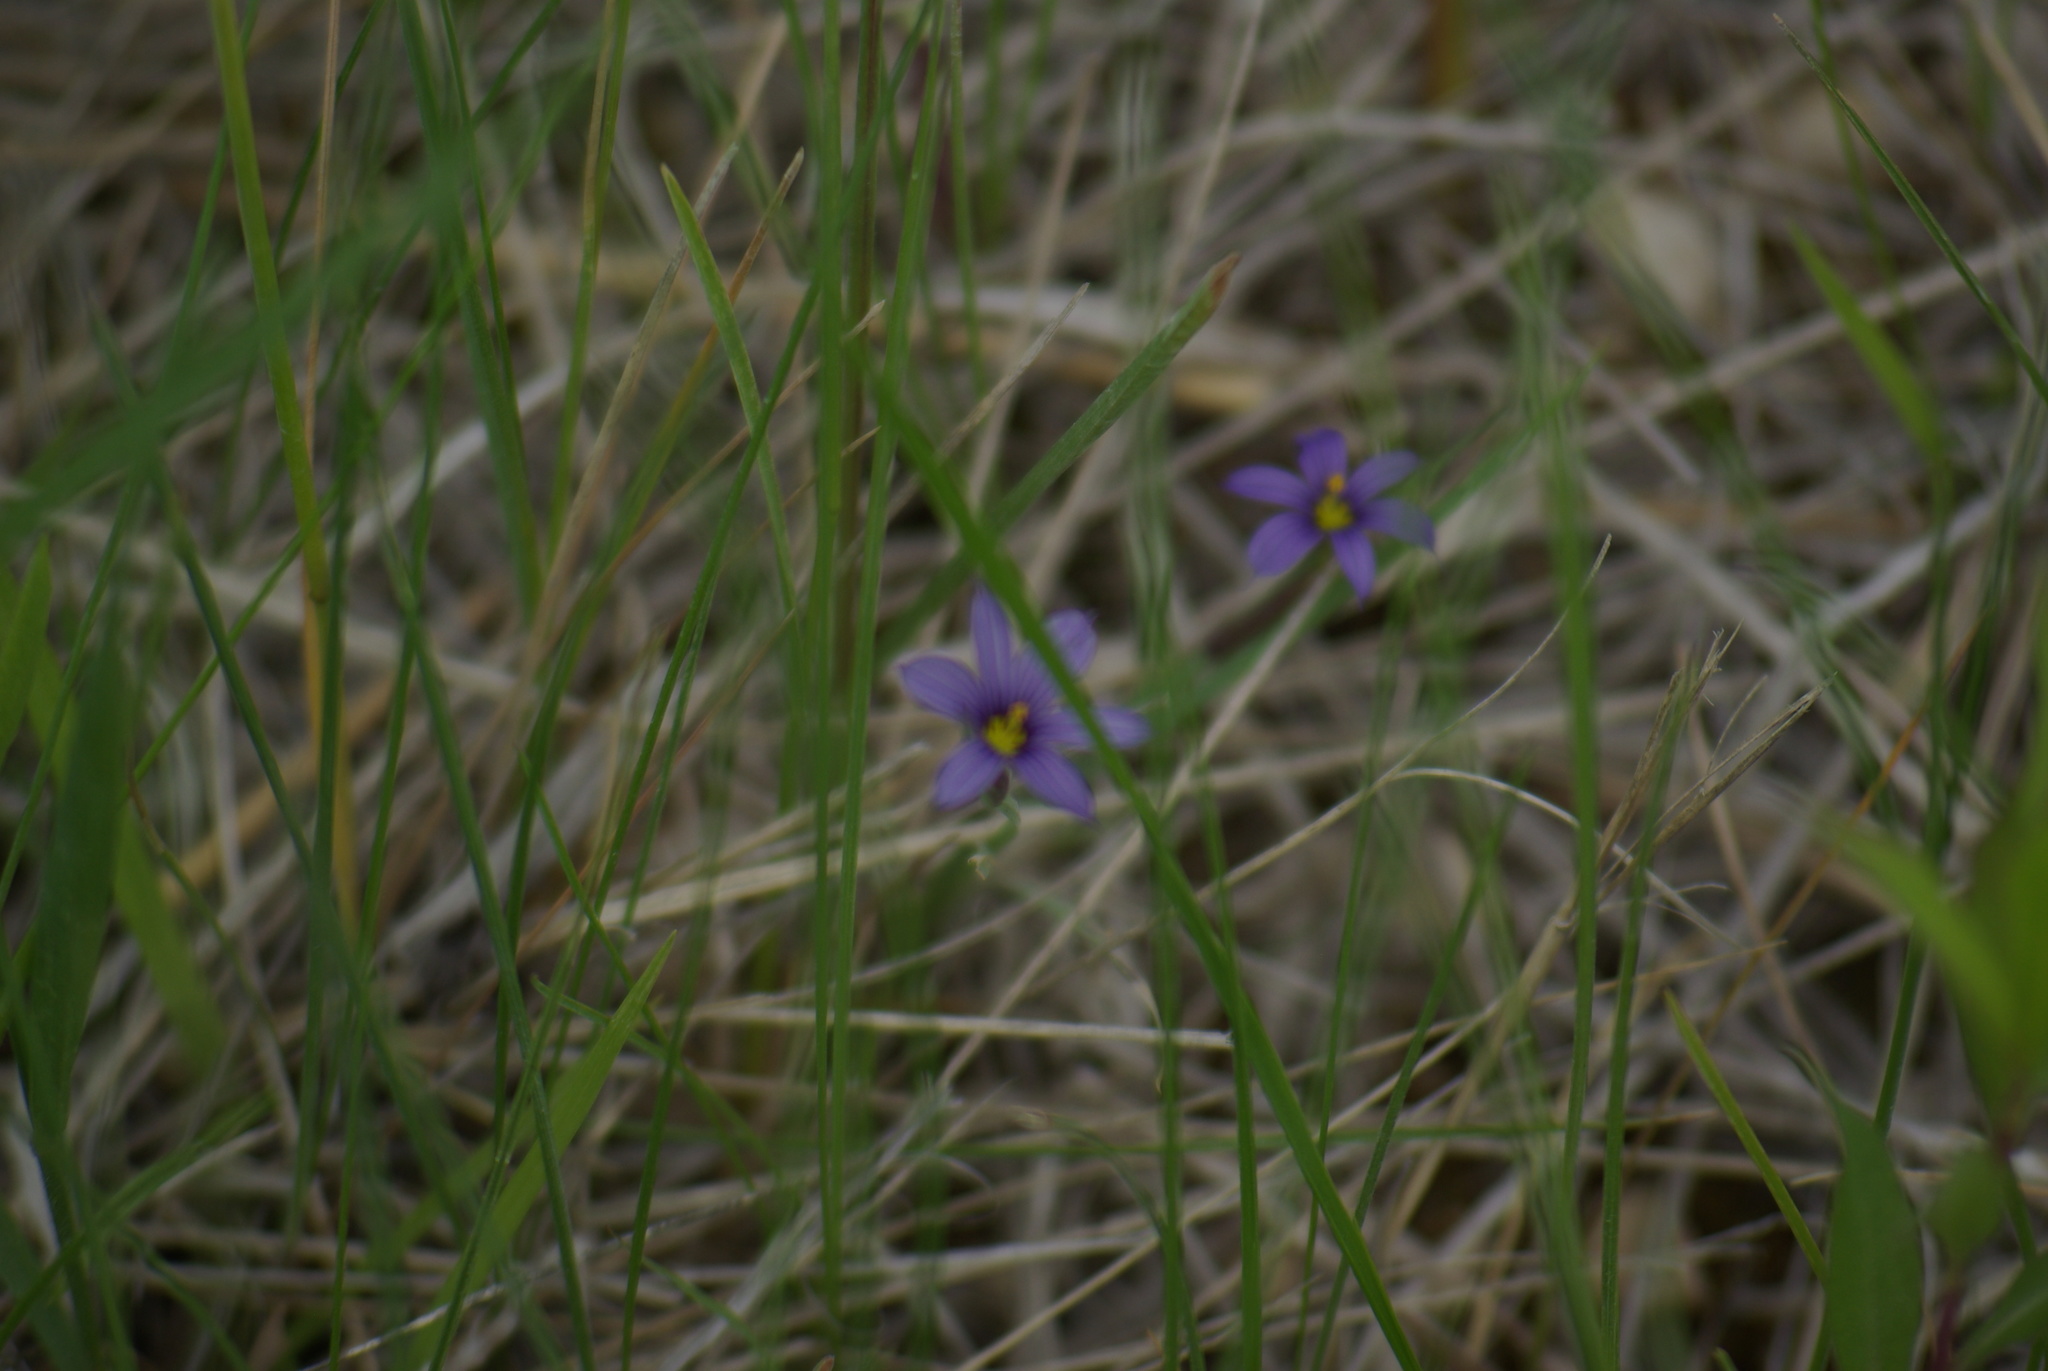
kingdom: Plantae
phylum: Tracheophyta
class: Liliopsida
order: Asparagales
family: Iridaceae
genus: Sisyrinchium
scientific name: Sisyrinchium montanum
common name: American blue-eyed-grass
